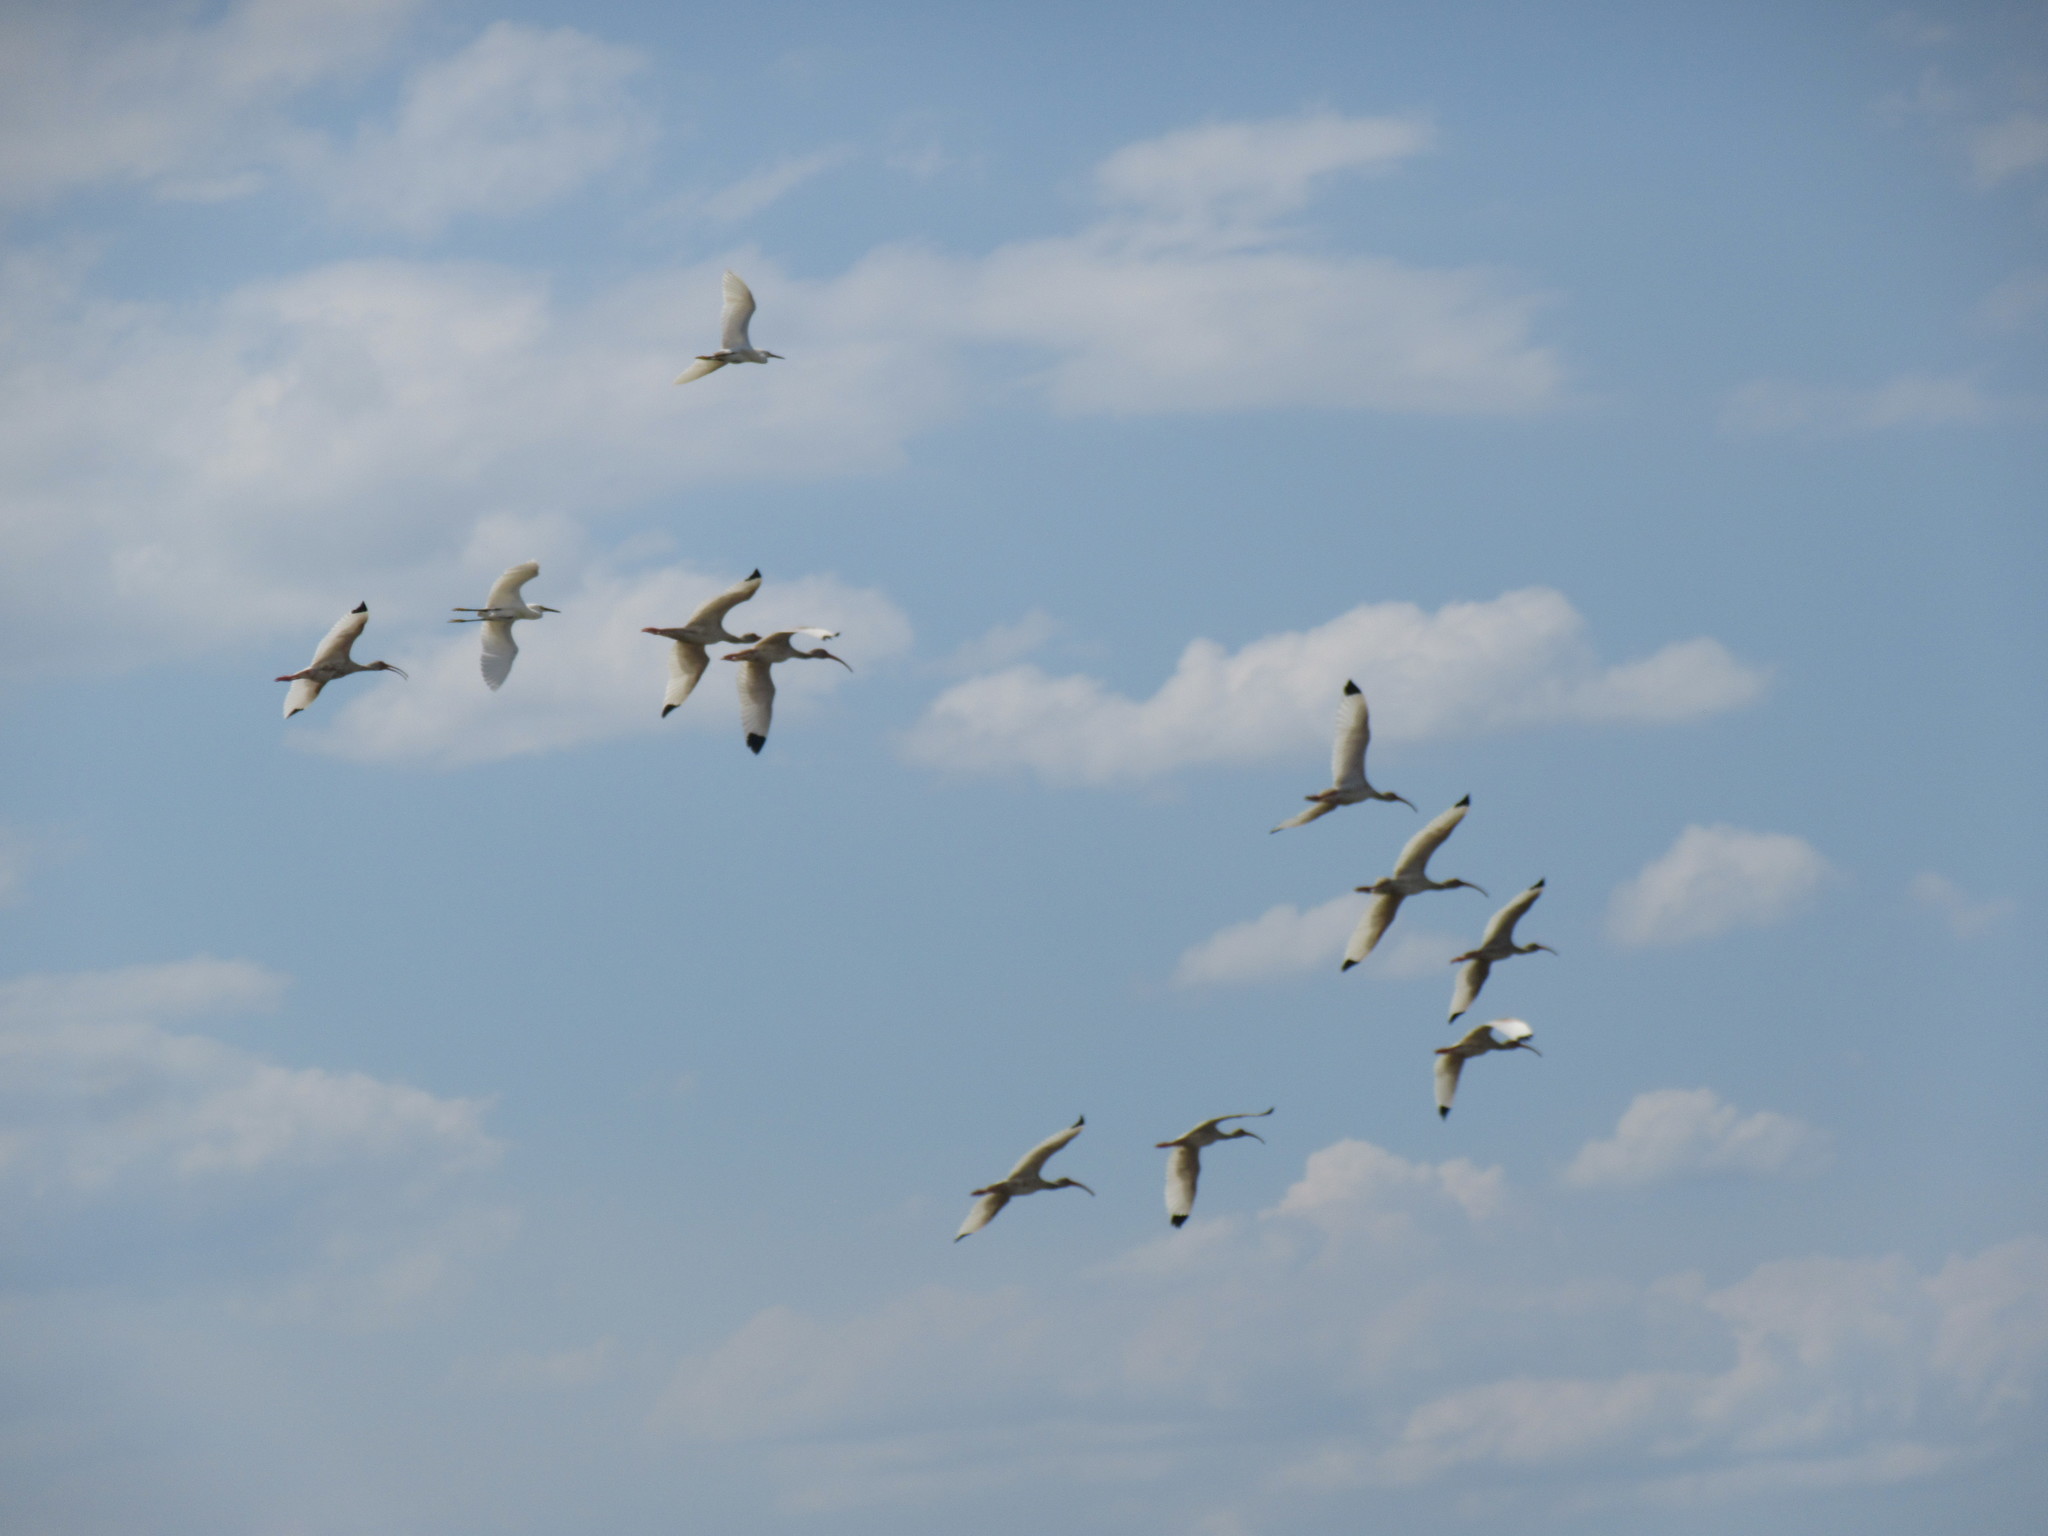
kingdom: Animalia
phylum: Chordata
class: Aves
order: Pelecaniformes
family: Threskiornithidae
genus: Eudocimus
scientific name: Eudocimus albus
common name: White ibis
